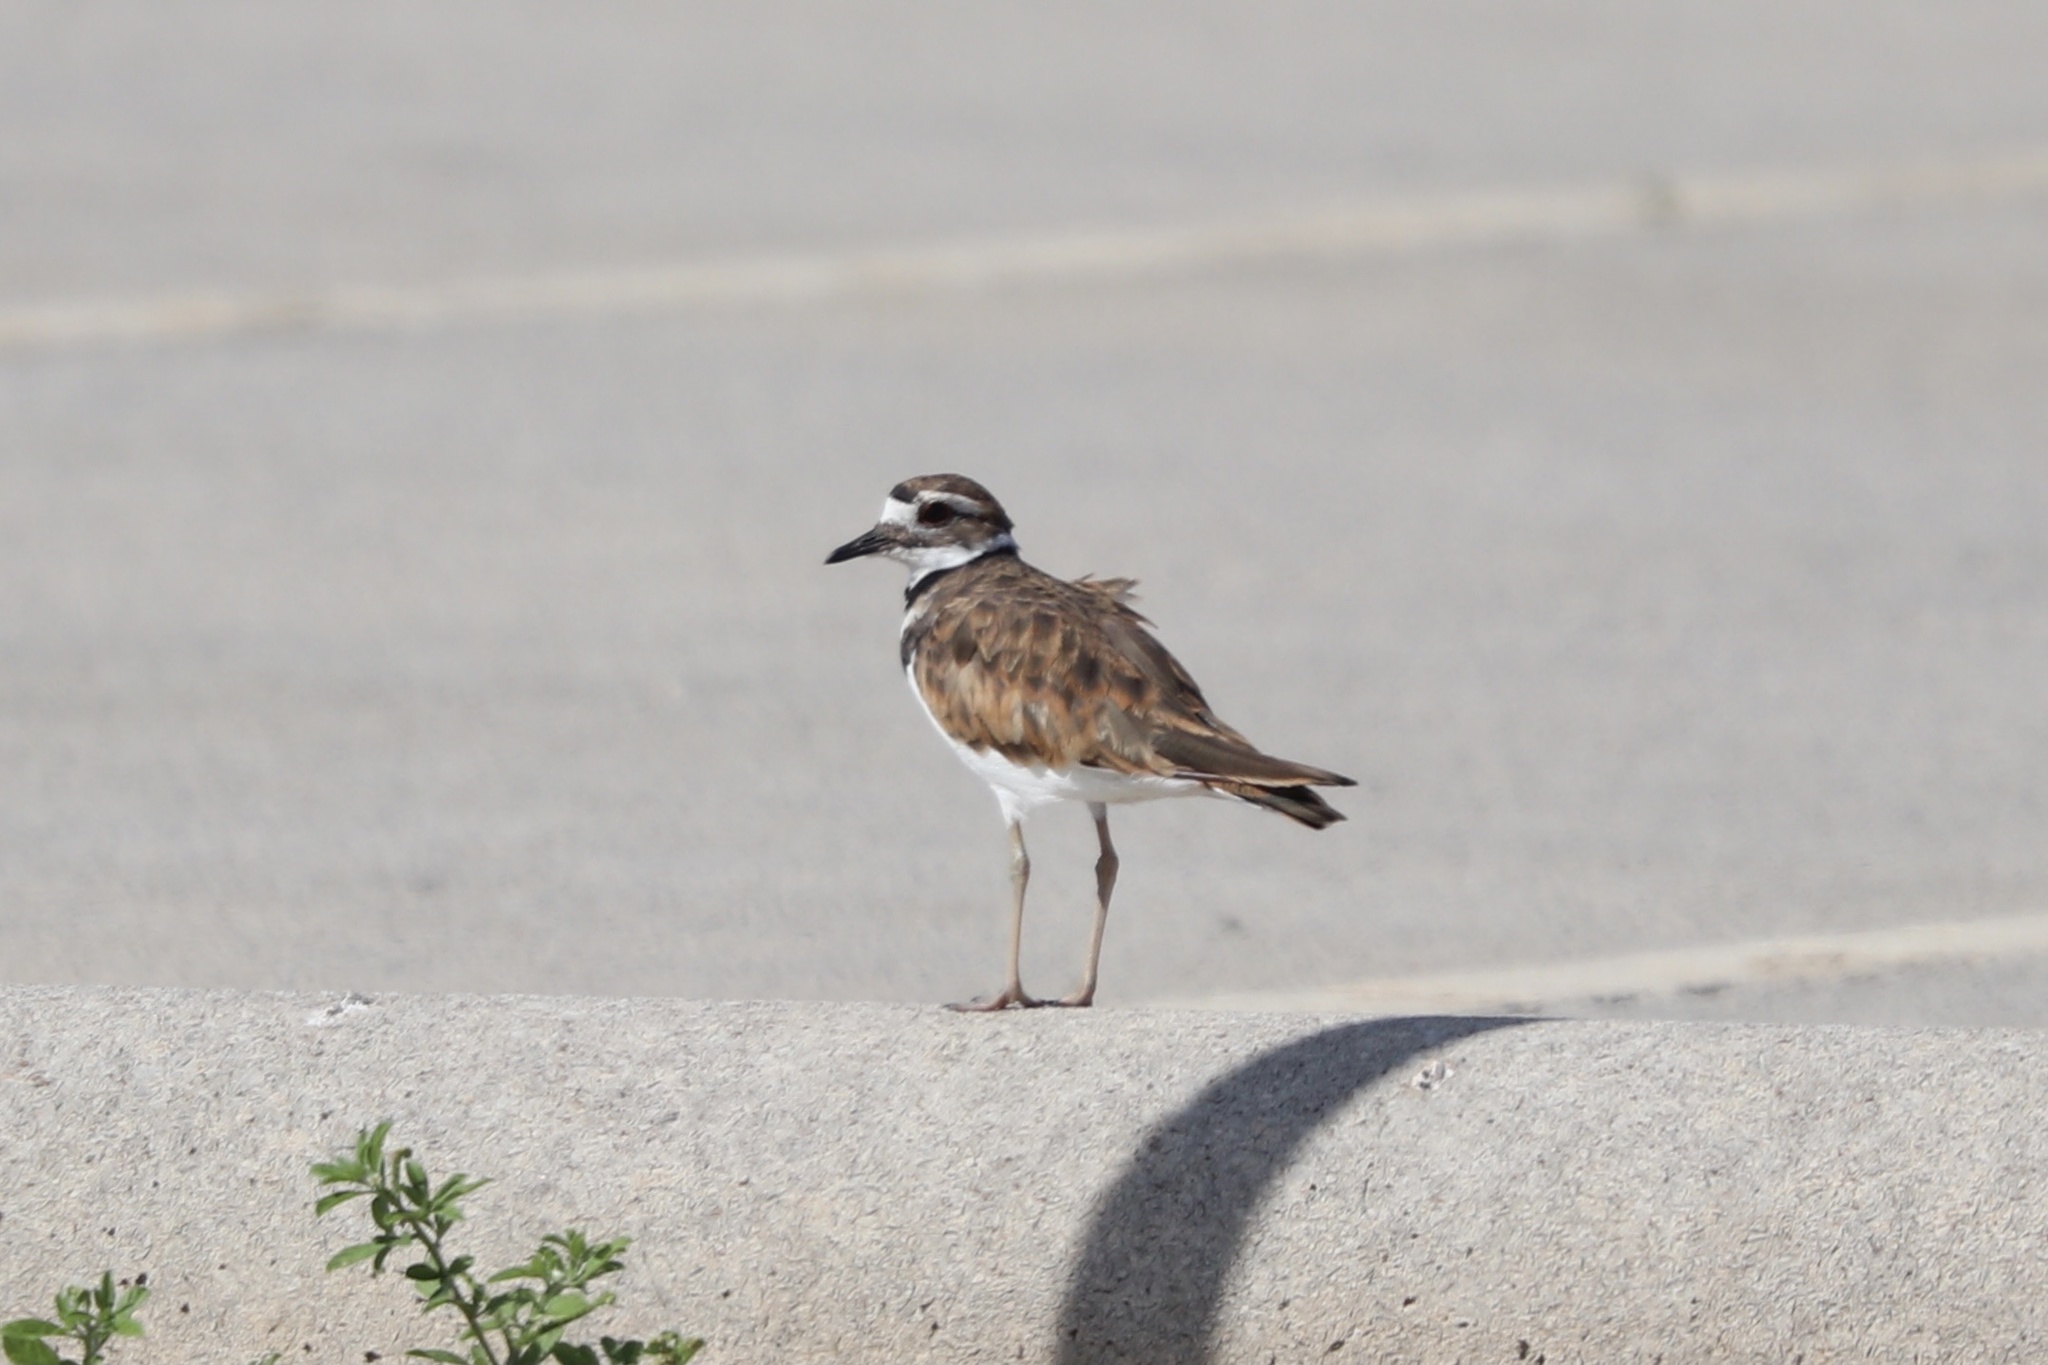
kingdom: Animalia
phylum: Chordata
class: Aves
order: Charadriiformes
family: Charadriidae
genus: Charadrius
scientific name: Charadrius vociferus
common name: Killdeer
